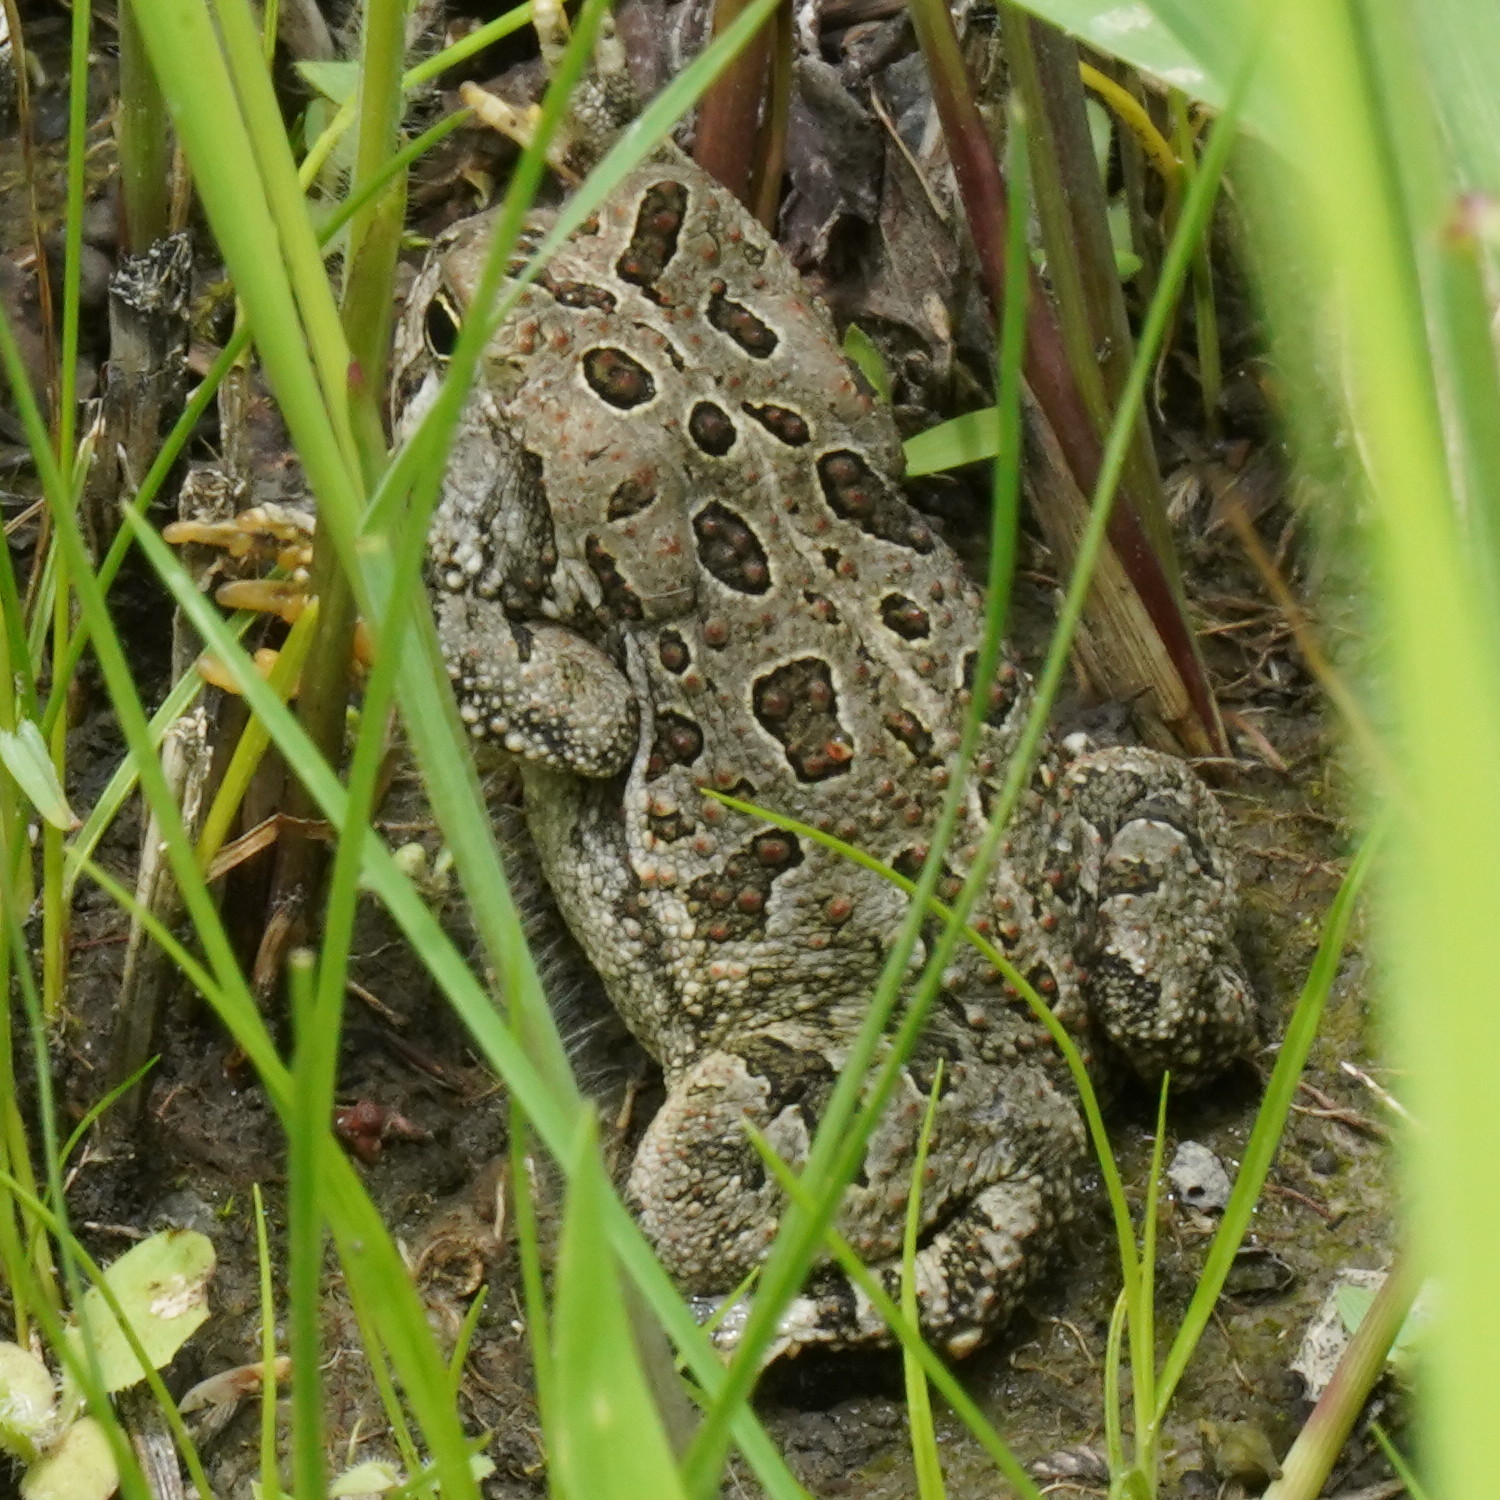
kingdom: Animalia
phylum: Chordata
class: Amphibia
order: Anura
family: Bufonidae
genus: Anaxyrus
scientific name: Anaxyrus fowleri
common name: Fowler's toad
